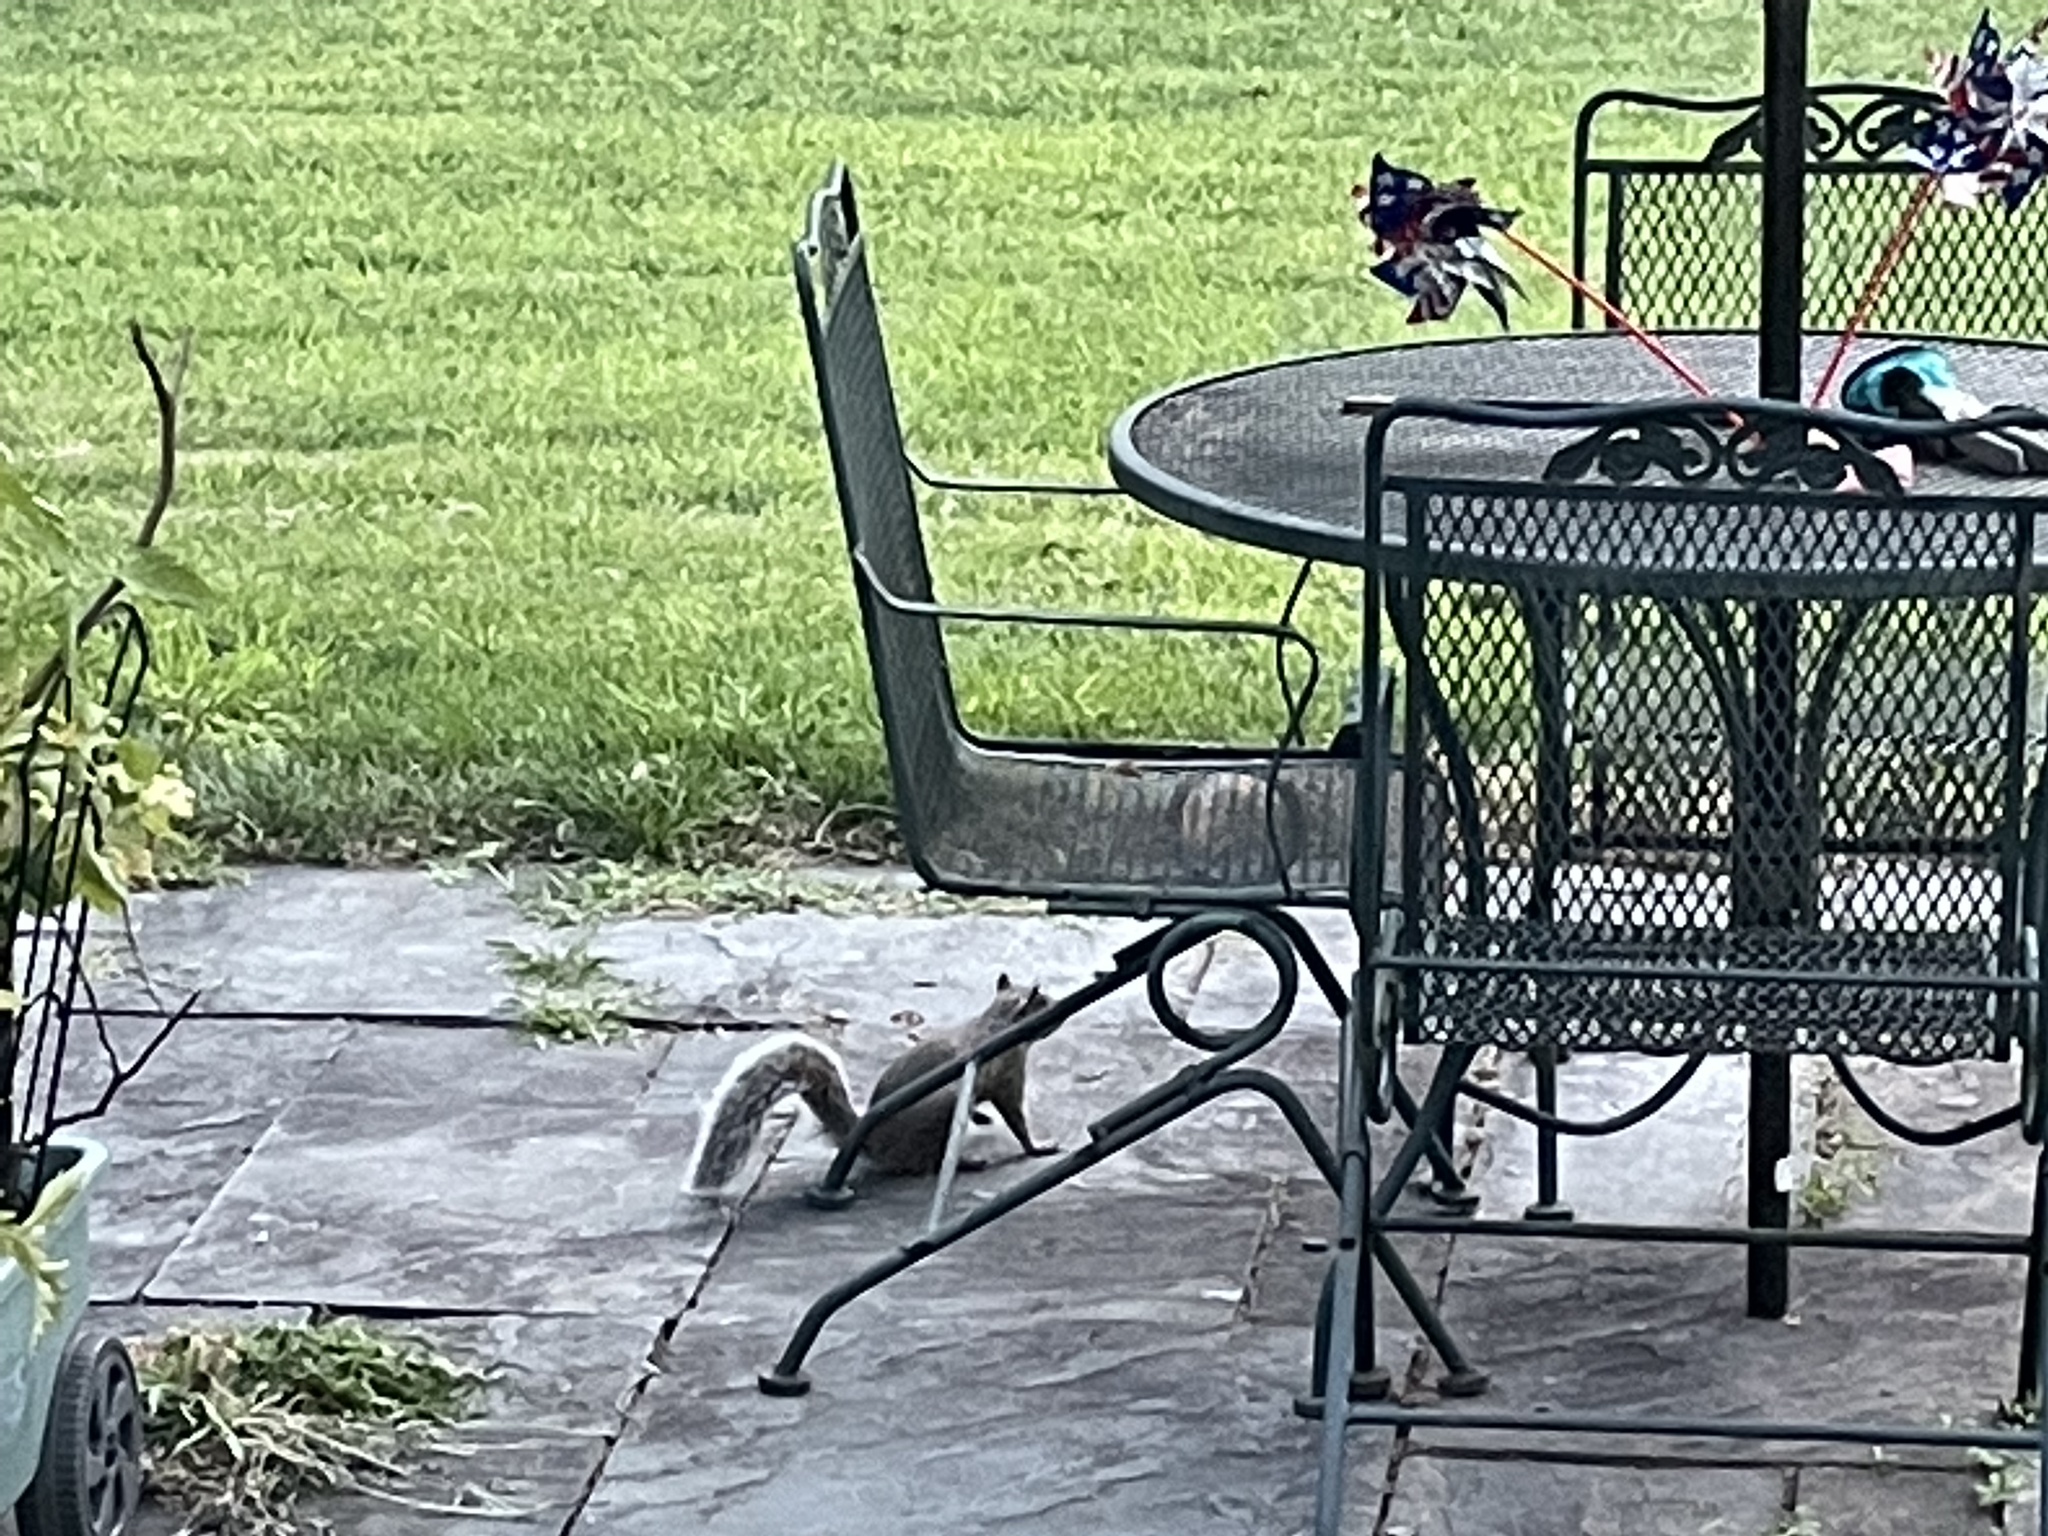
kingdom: Animalia
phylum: Chordata
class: Mammalia
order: Rodentia
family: Sciuridae
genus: Sciurus
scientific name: Sciurus carolinensis
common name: Eastern gray squirrel
